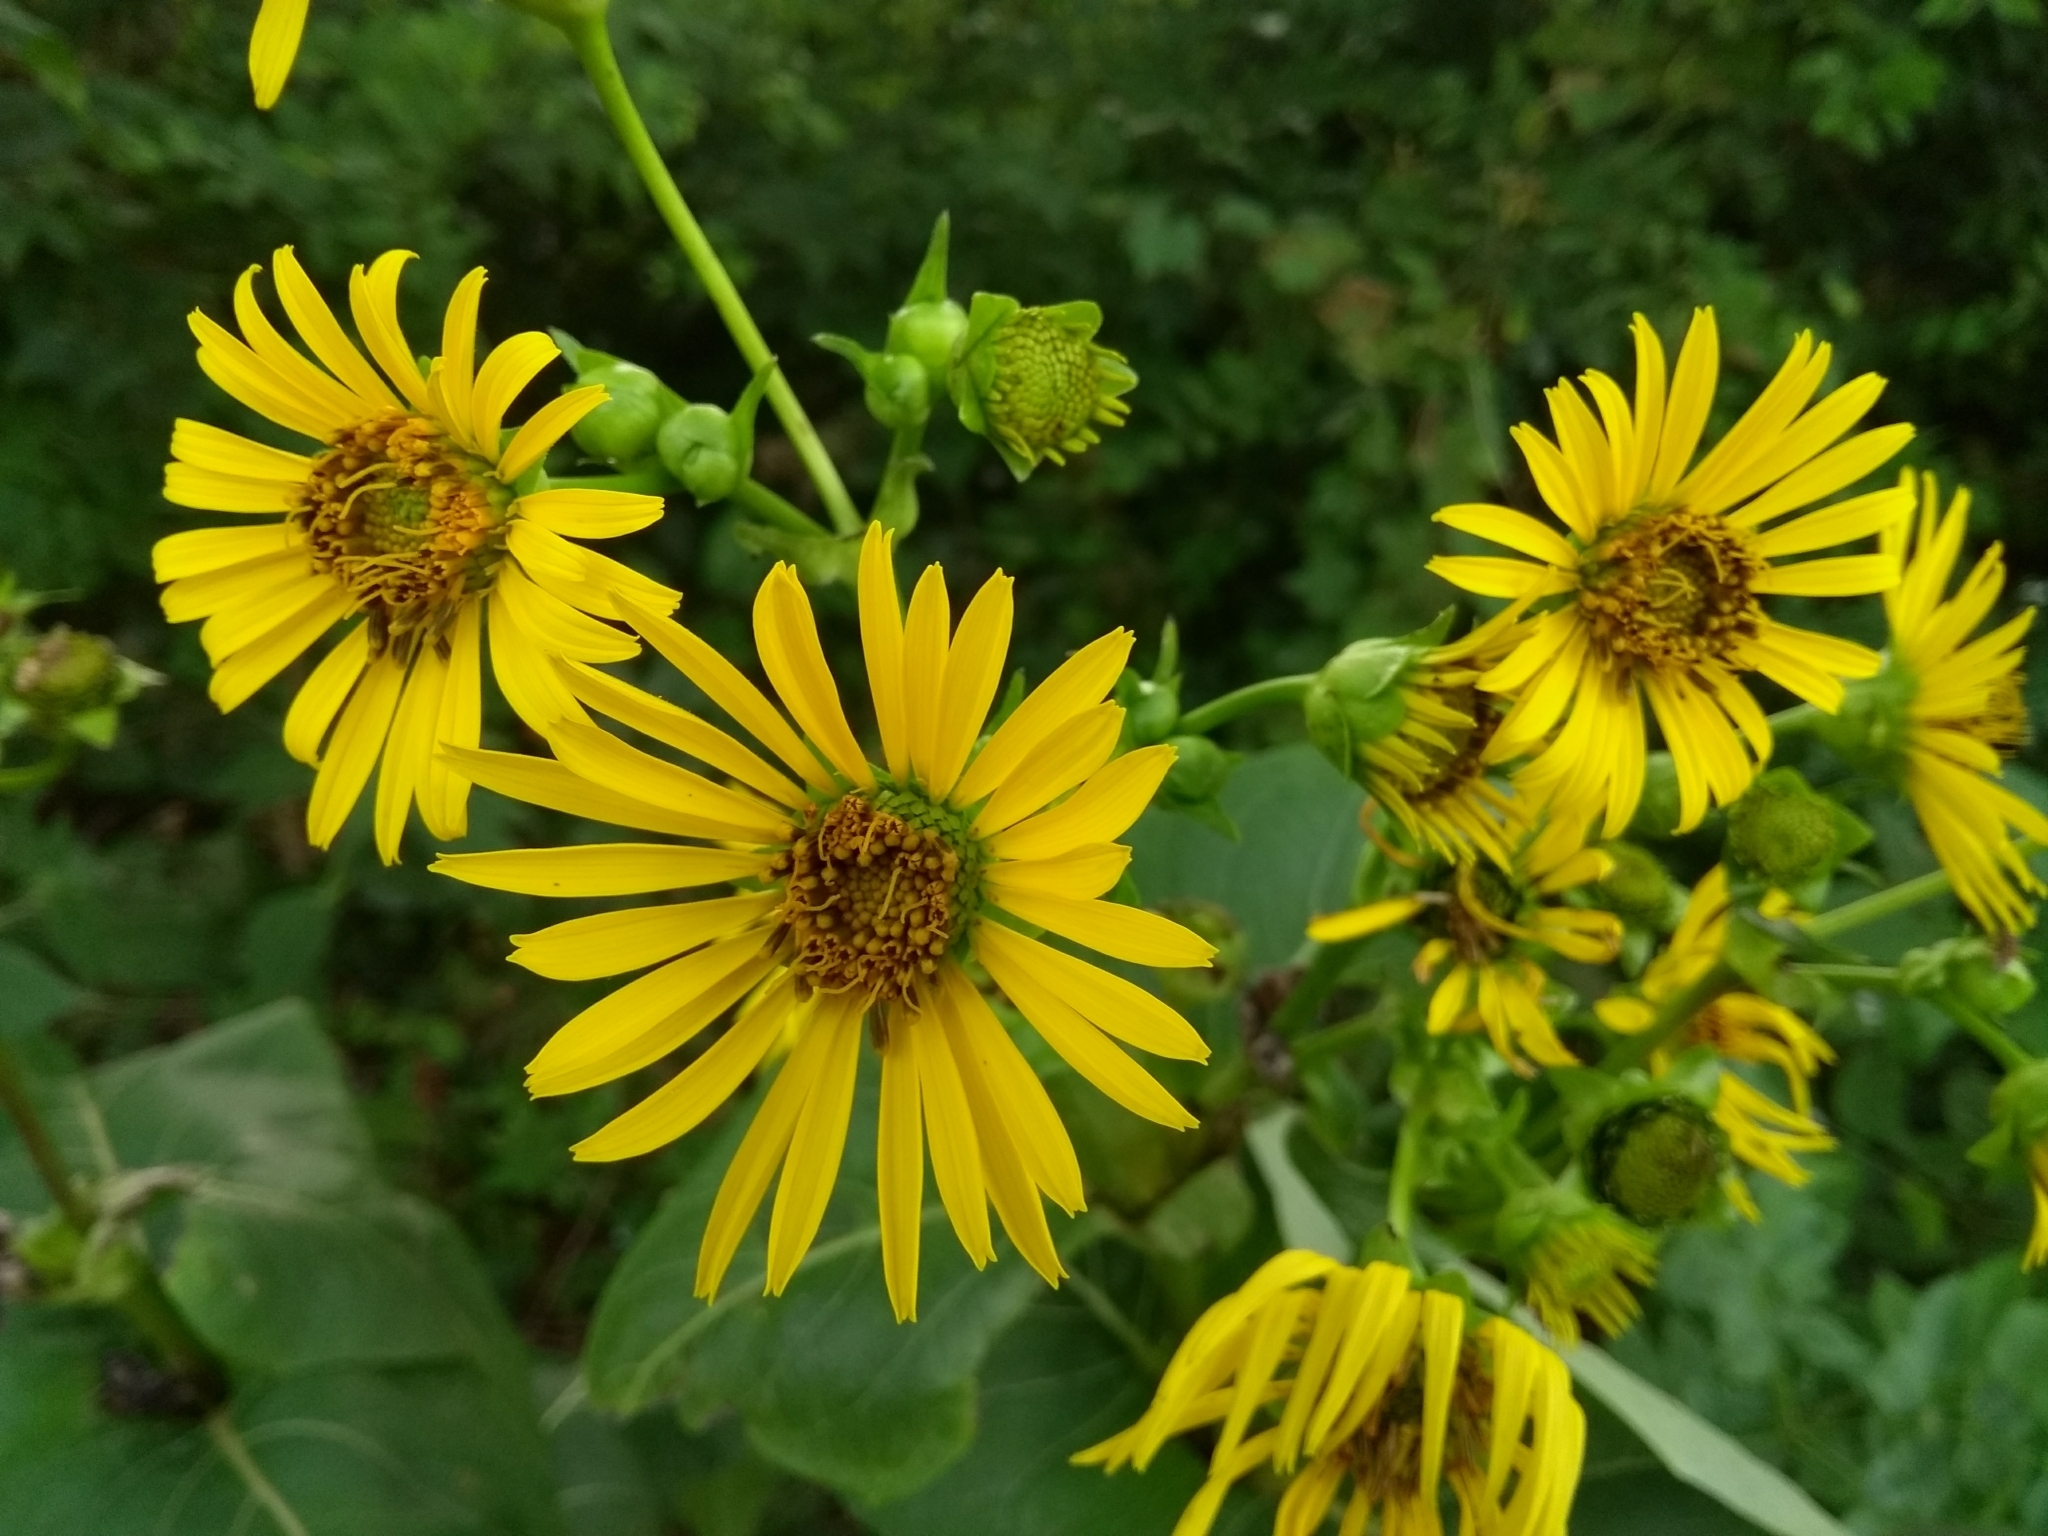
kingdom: Plantae
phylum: Tracheophyta
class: Magnoliopsida
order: Asterales
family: Asteraceae
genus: Silphium
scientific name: Silphium perfoliatum
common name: Cup-plant
